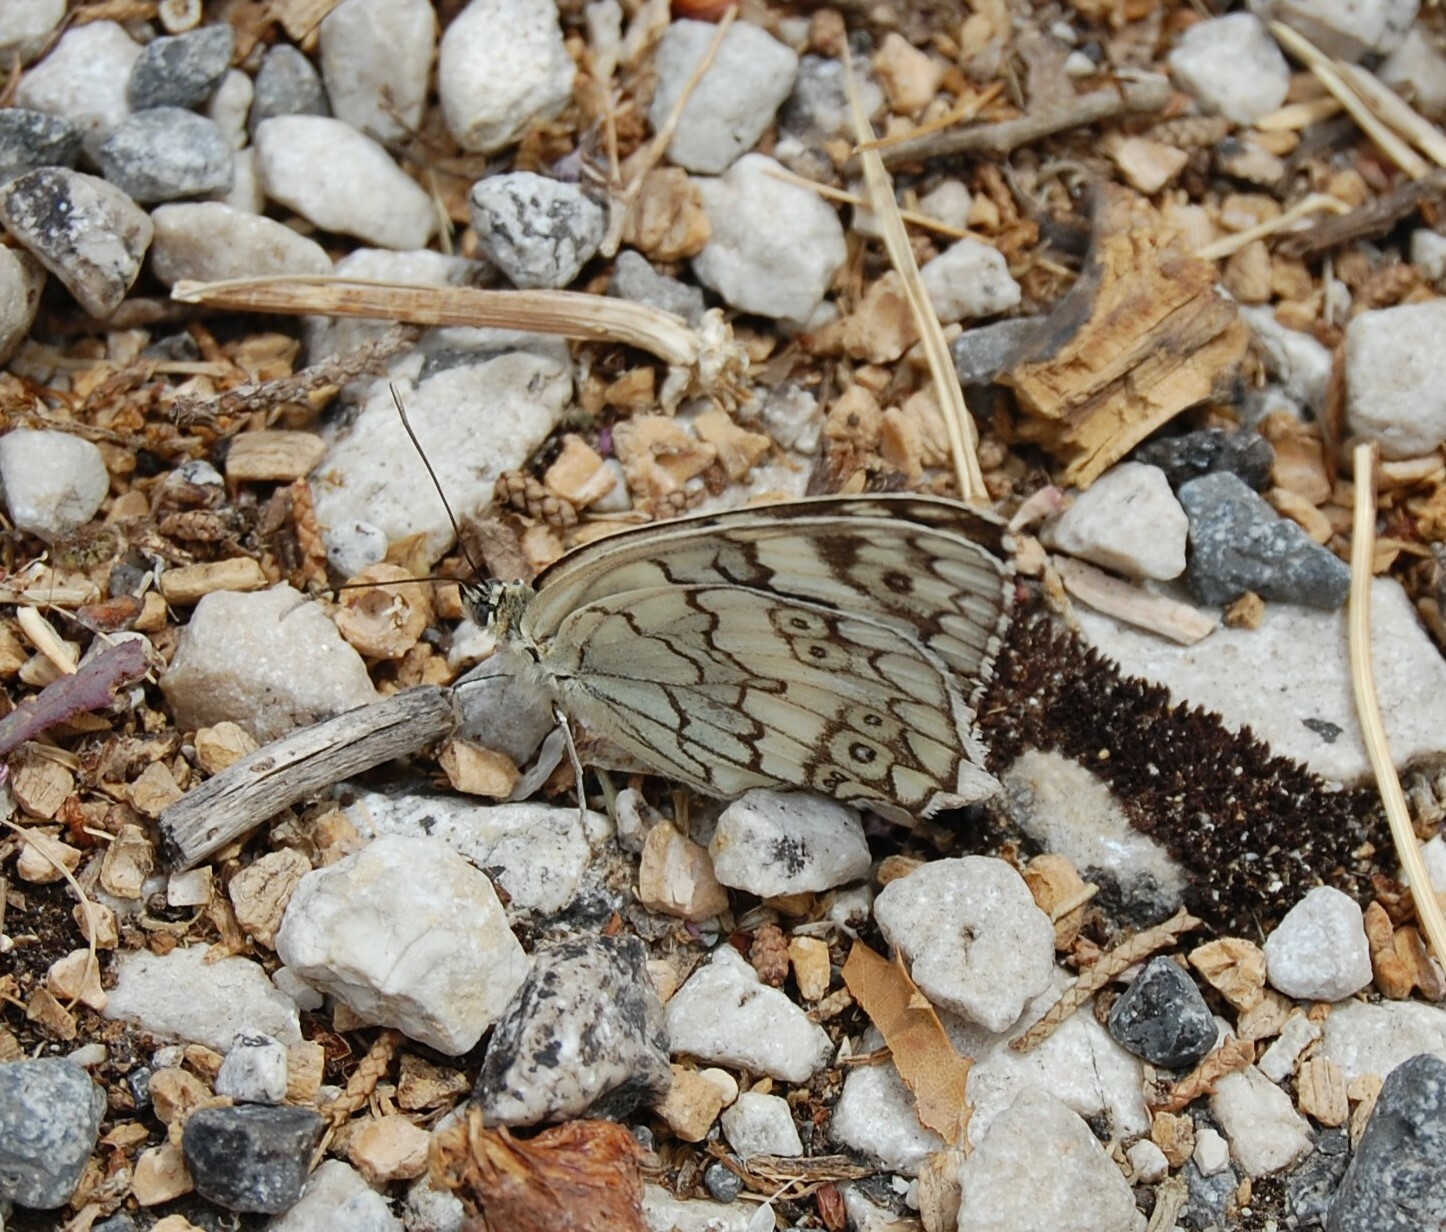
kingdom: Animalia
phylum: Arthropoda
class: Insecta
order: Lepidoptera
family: Nymphalidae
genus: Melanargia
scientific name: Melanargia larissa
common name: Balkan marbled white
